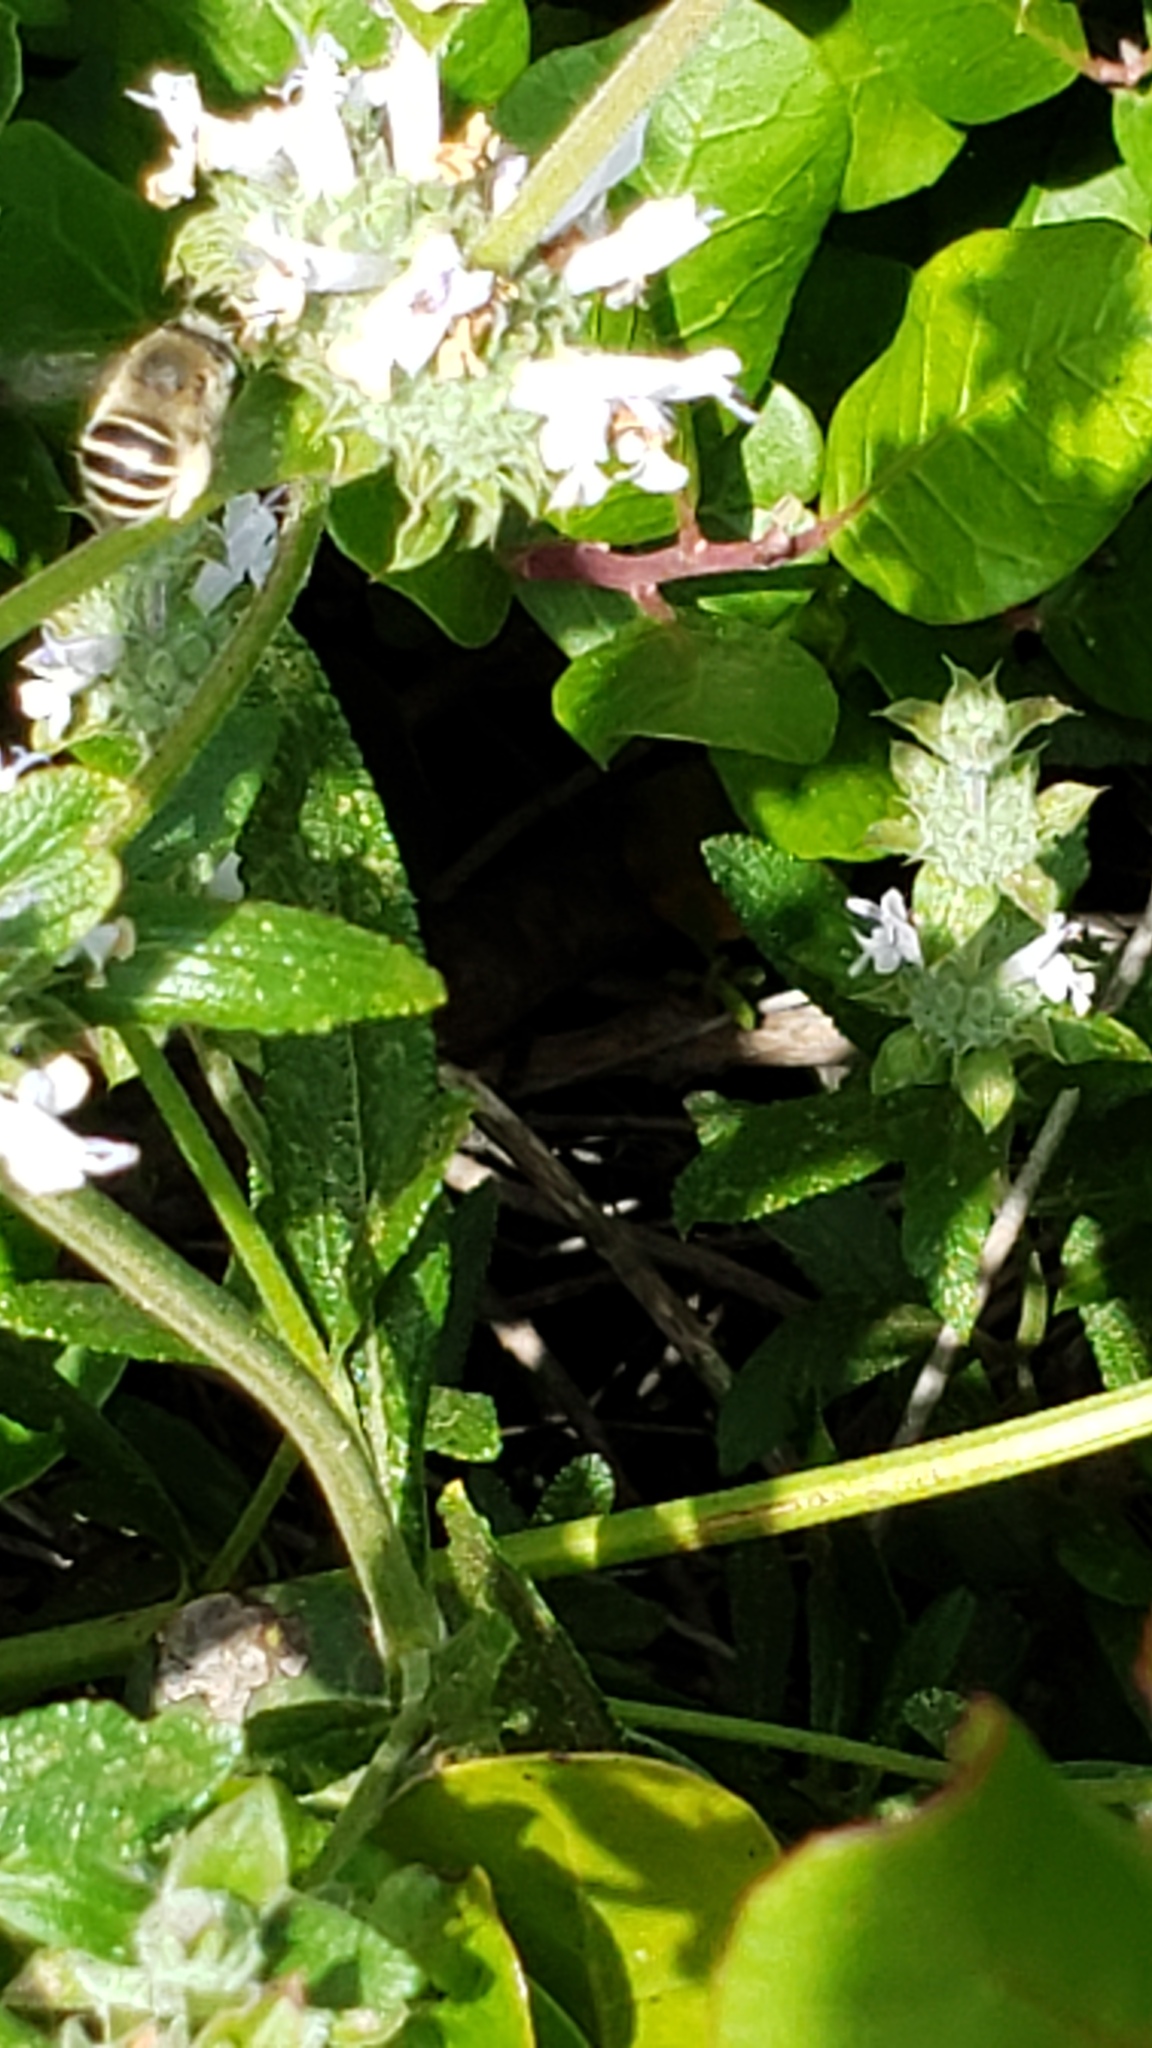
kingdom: Animalia
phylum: Arthropoda
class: Insecta
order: Hymenoptera
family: Apidae
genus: Anthophora
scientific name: Anthophora californica
